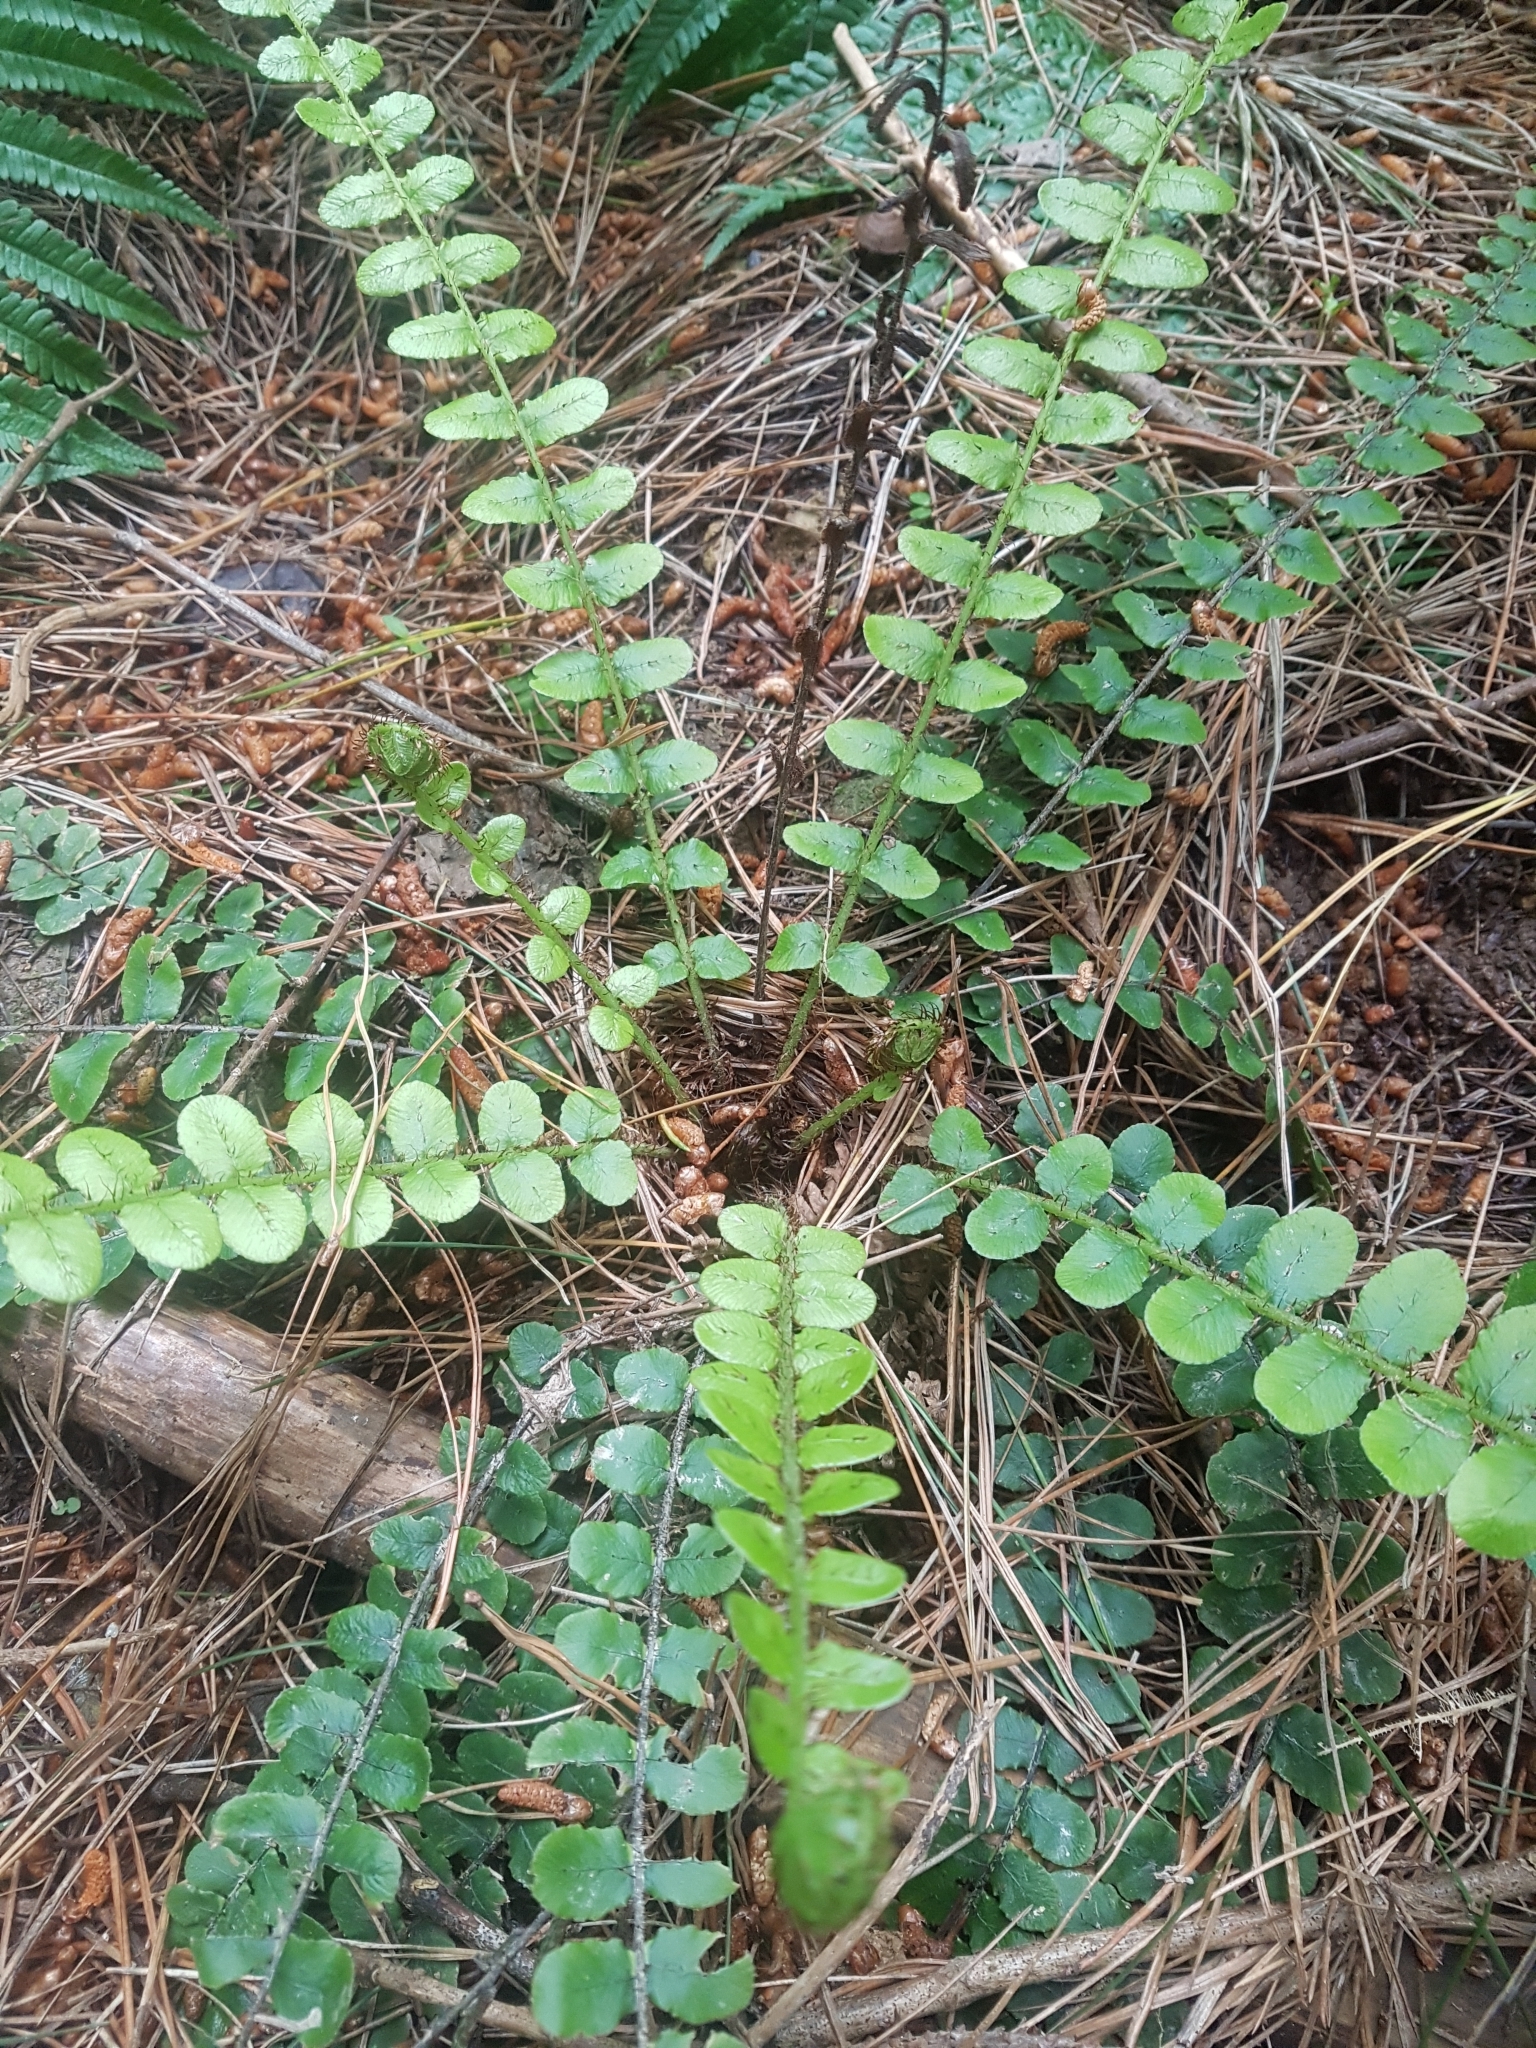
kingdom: Plantae
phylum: Tracheophyta
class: Polypodiopsida
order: Polypodiales
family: Blechnaceae
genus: Cranfillia
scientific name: Cranfillia fluviatilis
